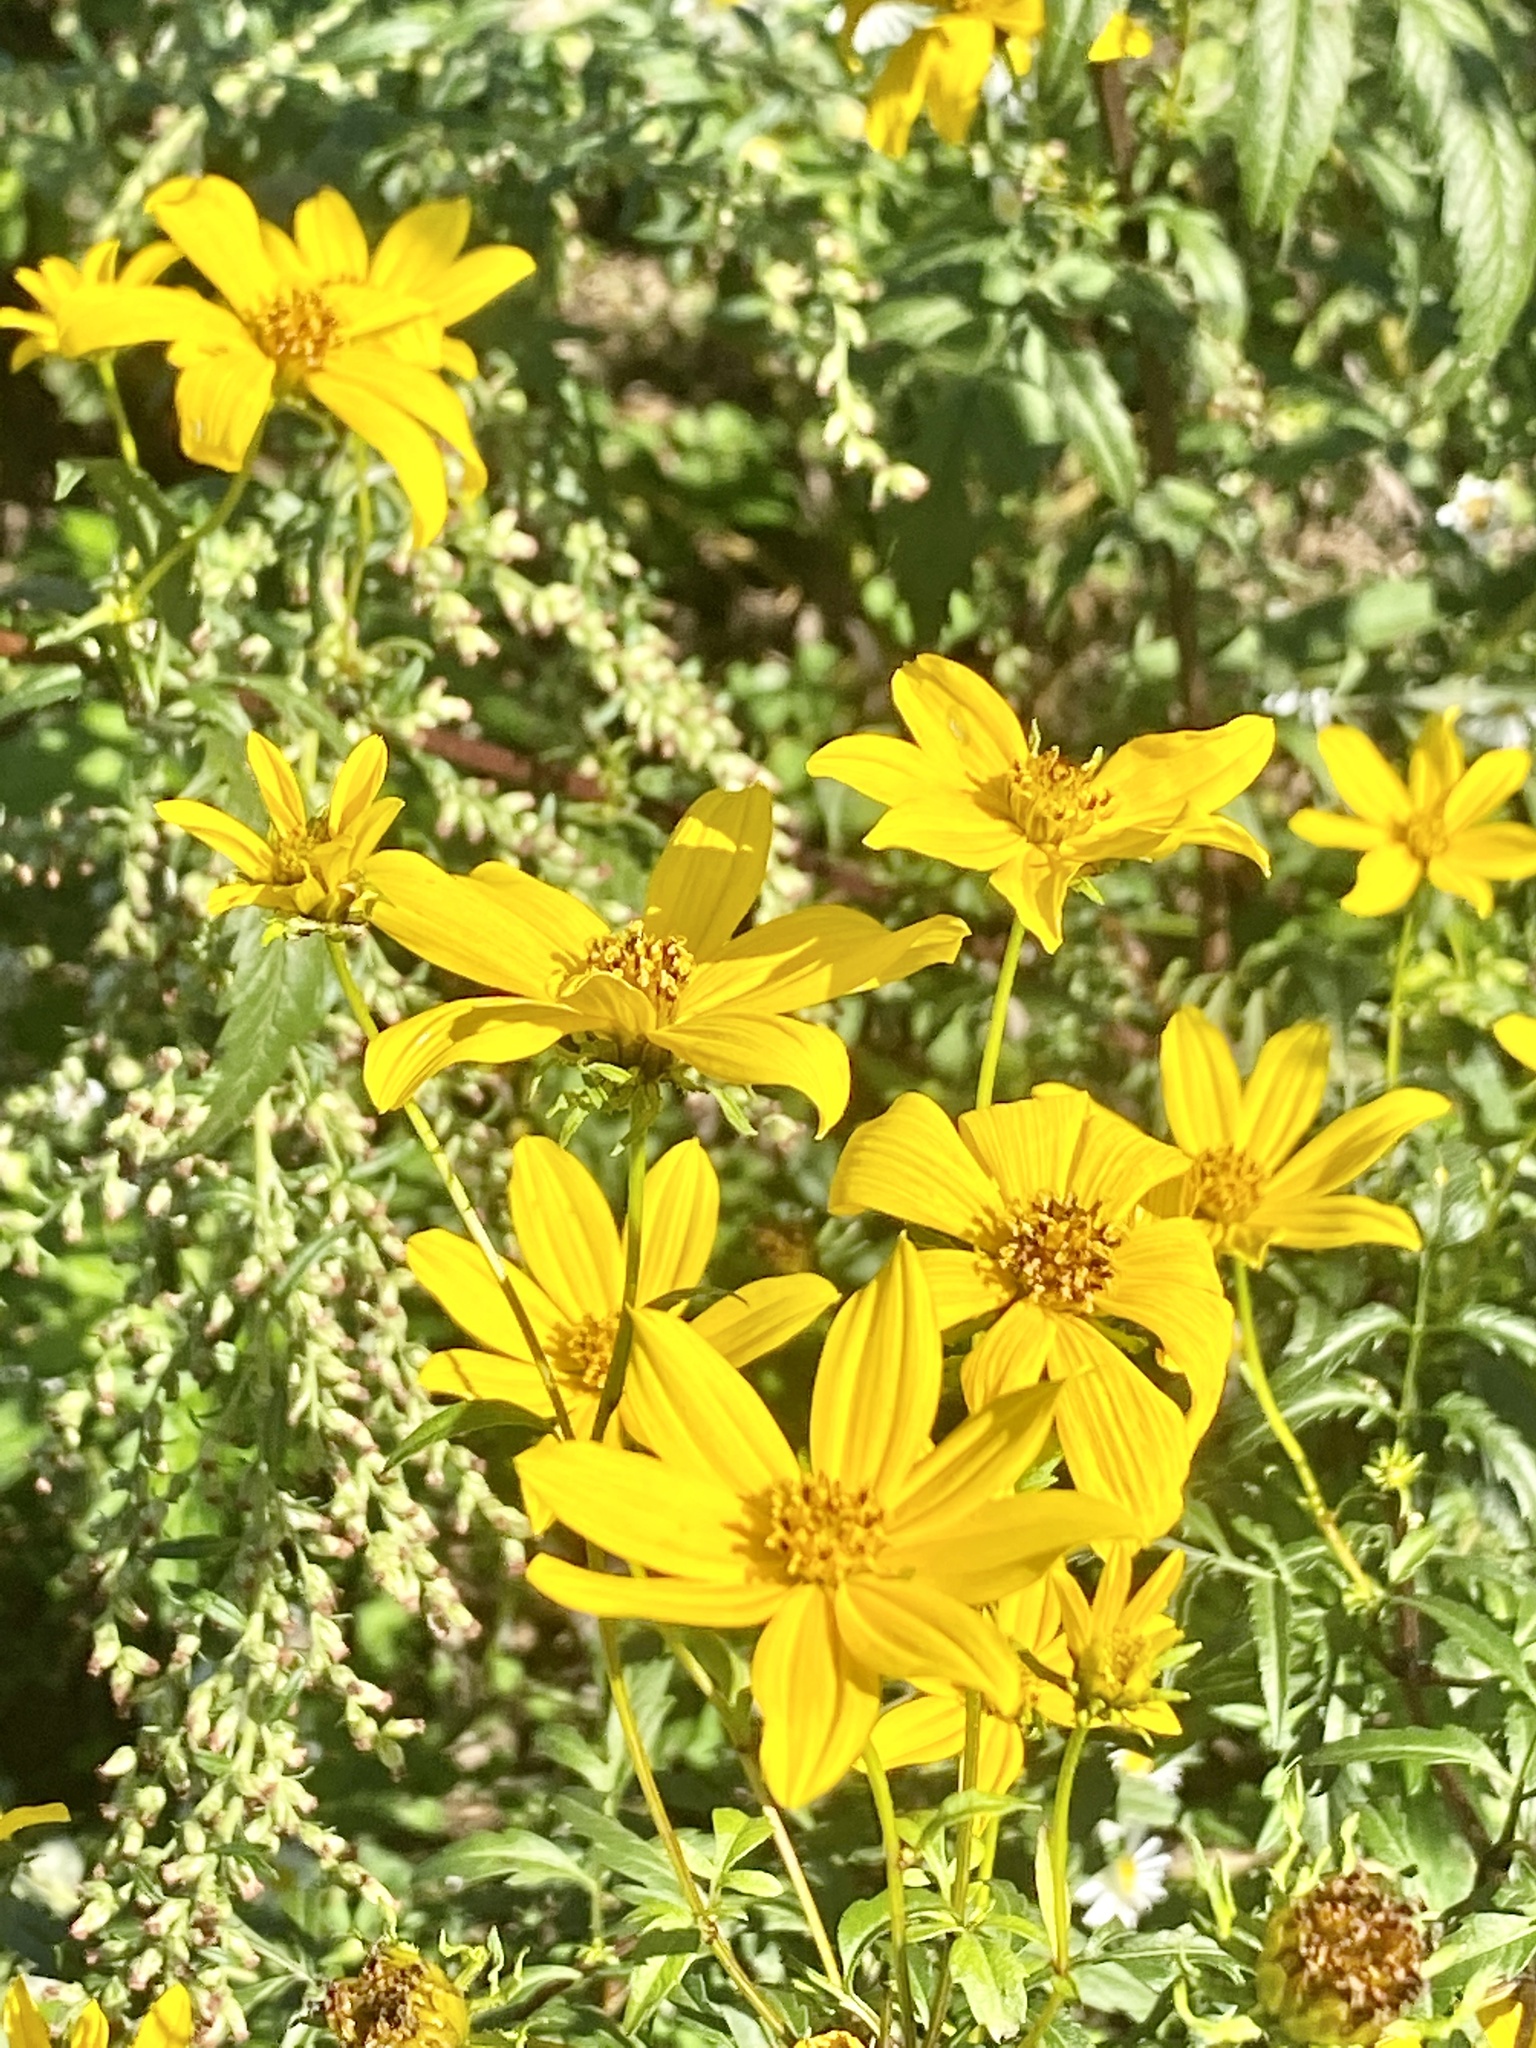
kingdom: Plantae
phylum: Tracheophyta
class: Magnoliopsida
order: Asterales
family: Asteraceae
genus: Bidens
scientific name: Bidens polylepis
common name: Awnless beggarticks
